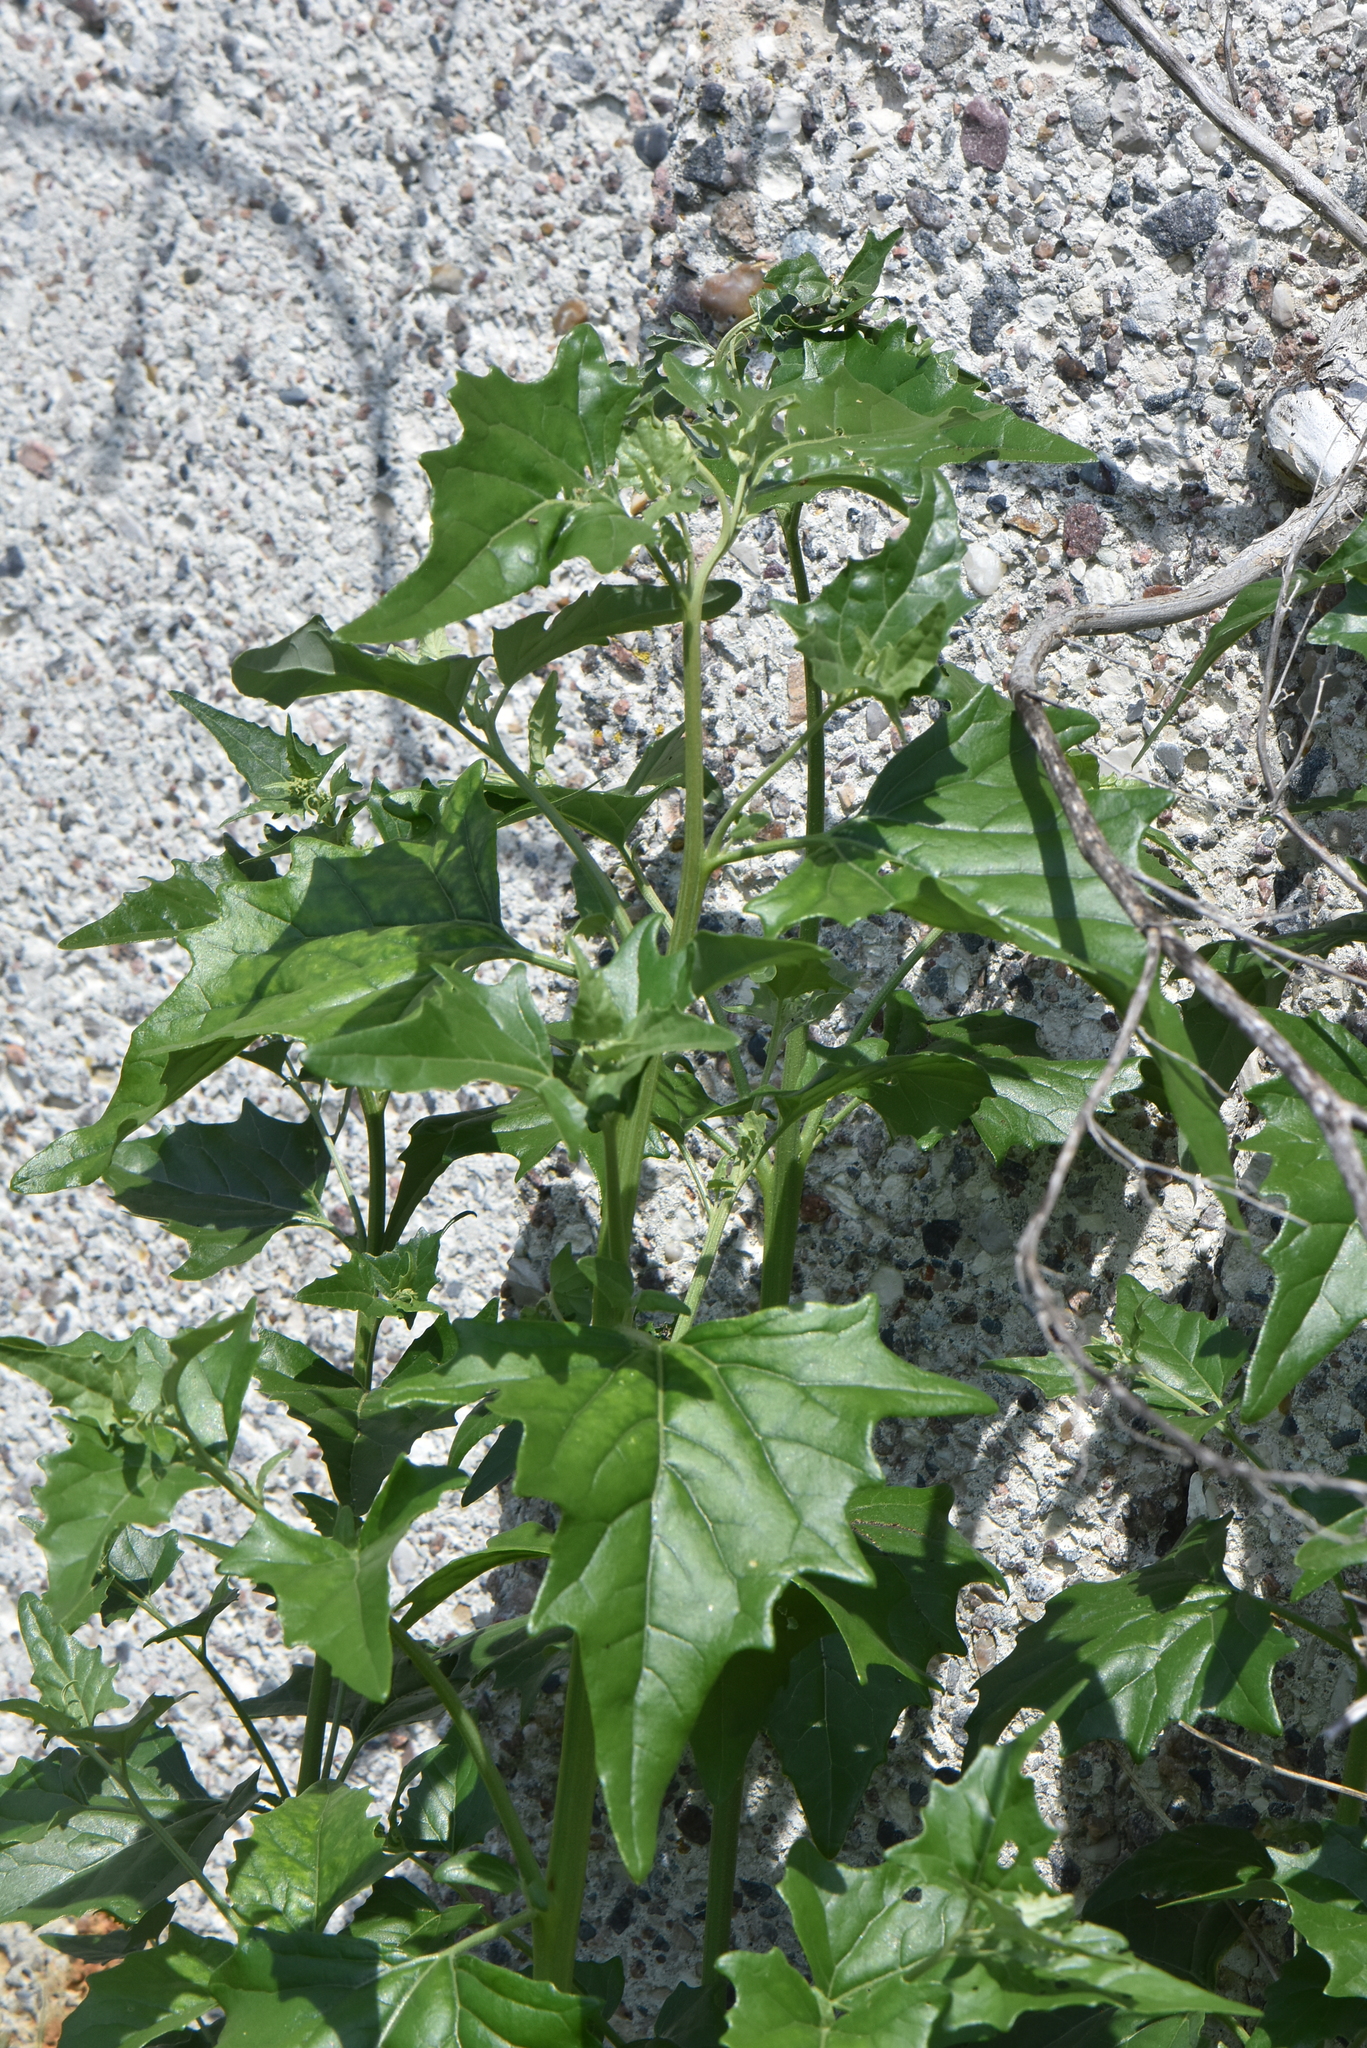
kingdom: Plantae
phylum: Tracheophyta
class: Magnoliopsida
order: Caryophyllales
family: Amaranthaceae
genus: Atriplex
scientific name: Atriplex sagittata
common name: Purple orache
